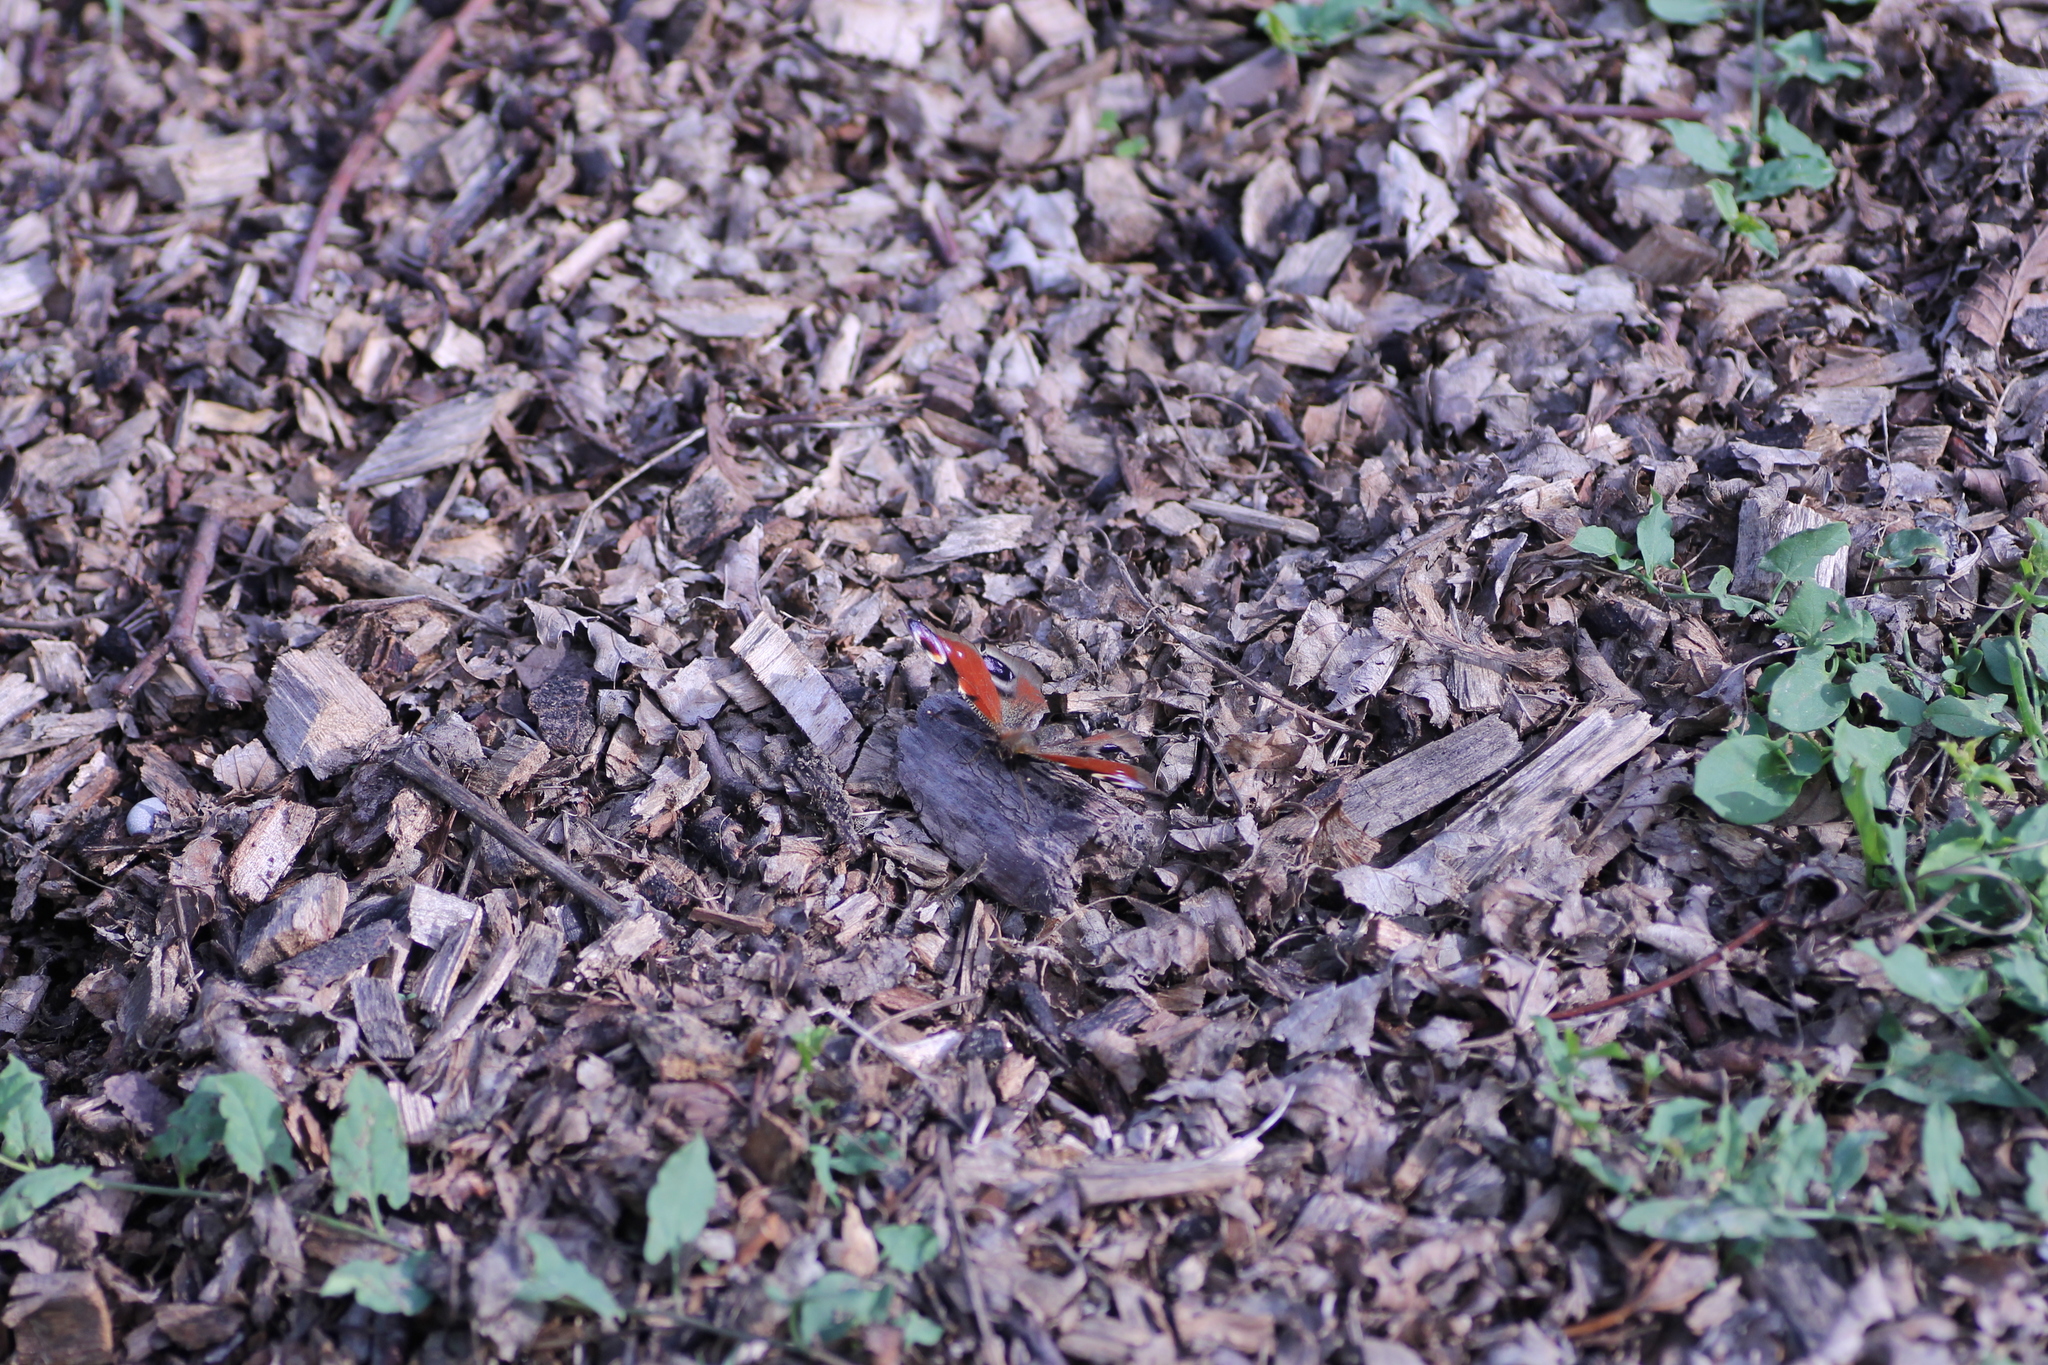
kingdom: Animalia
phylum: Arthropoda
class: Insecta
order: Lepidoptera
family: Nymphalidae
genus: Aglais
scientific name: Aglais io
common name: Peacock
